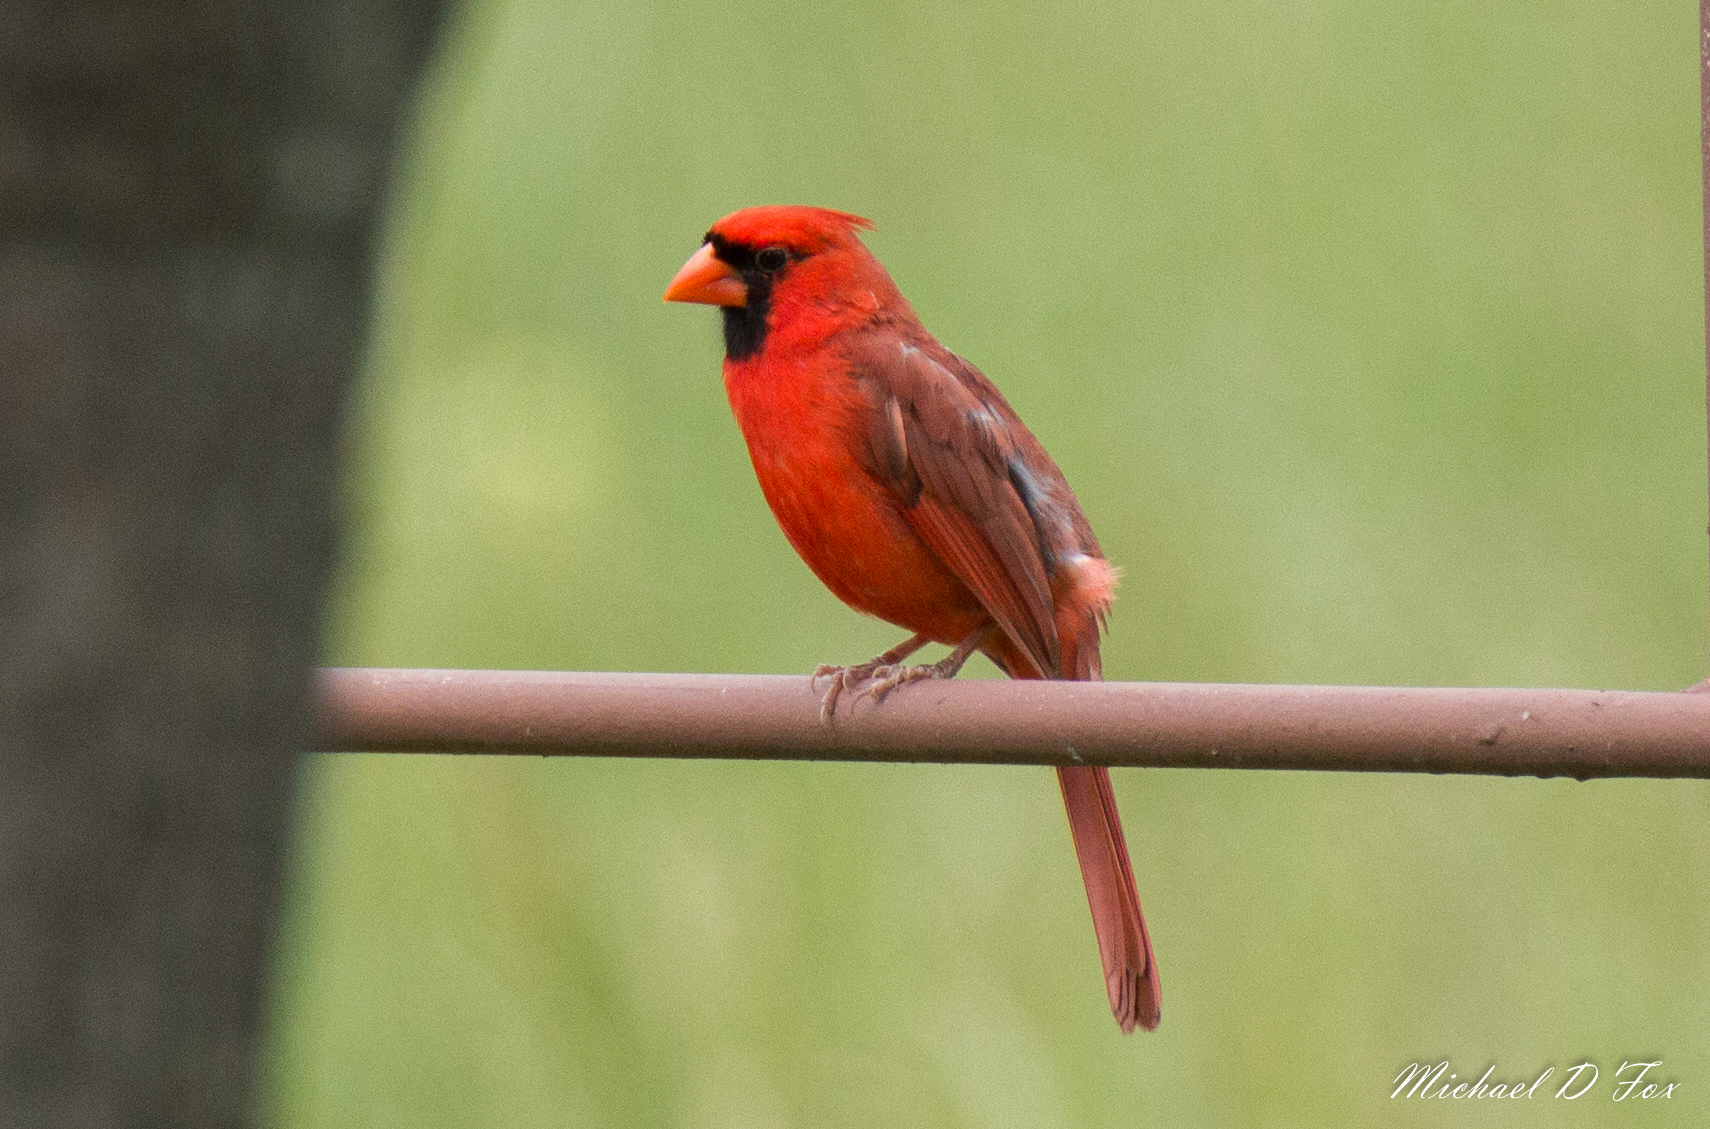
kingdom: Animalia
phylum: Chordata
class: Aves
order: Passeriformes
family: Cardinalidae
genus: Cardinalis
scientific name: Cardinalis cardinalis
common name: Northern cardinal
